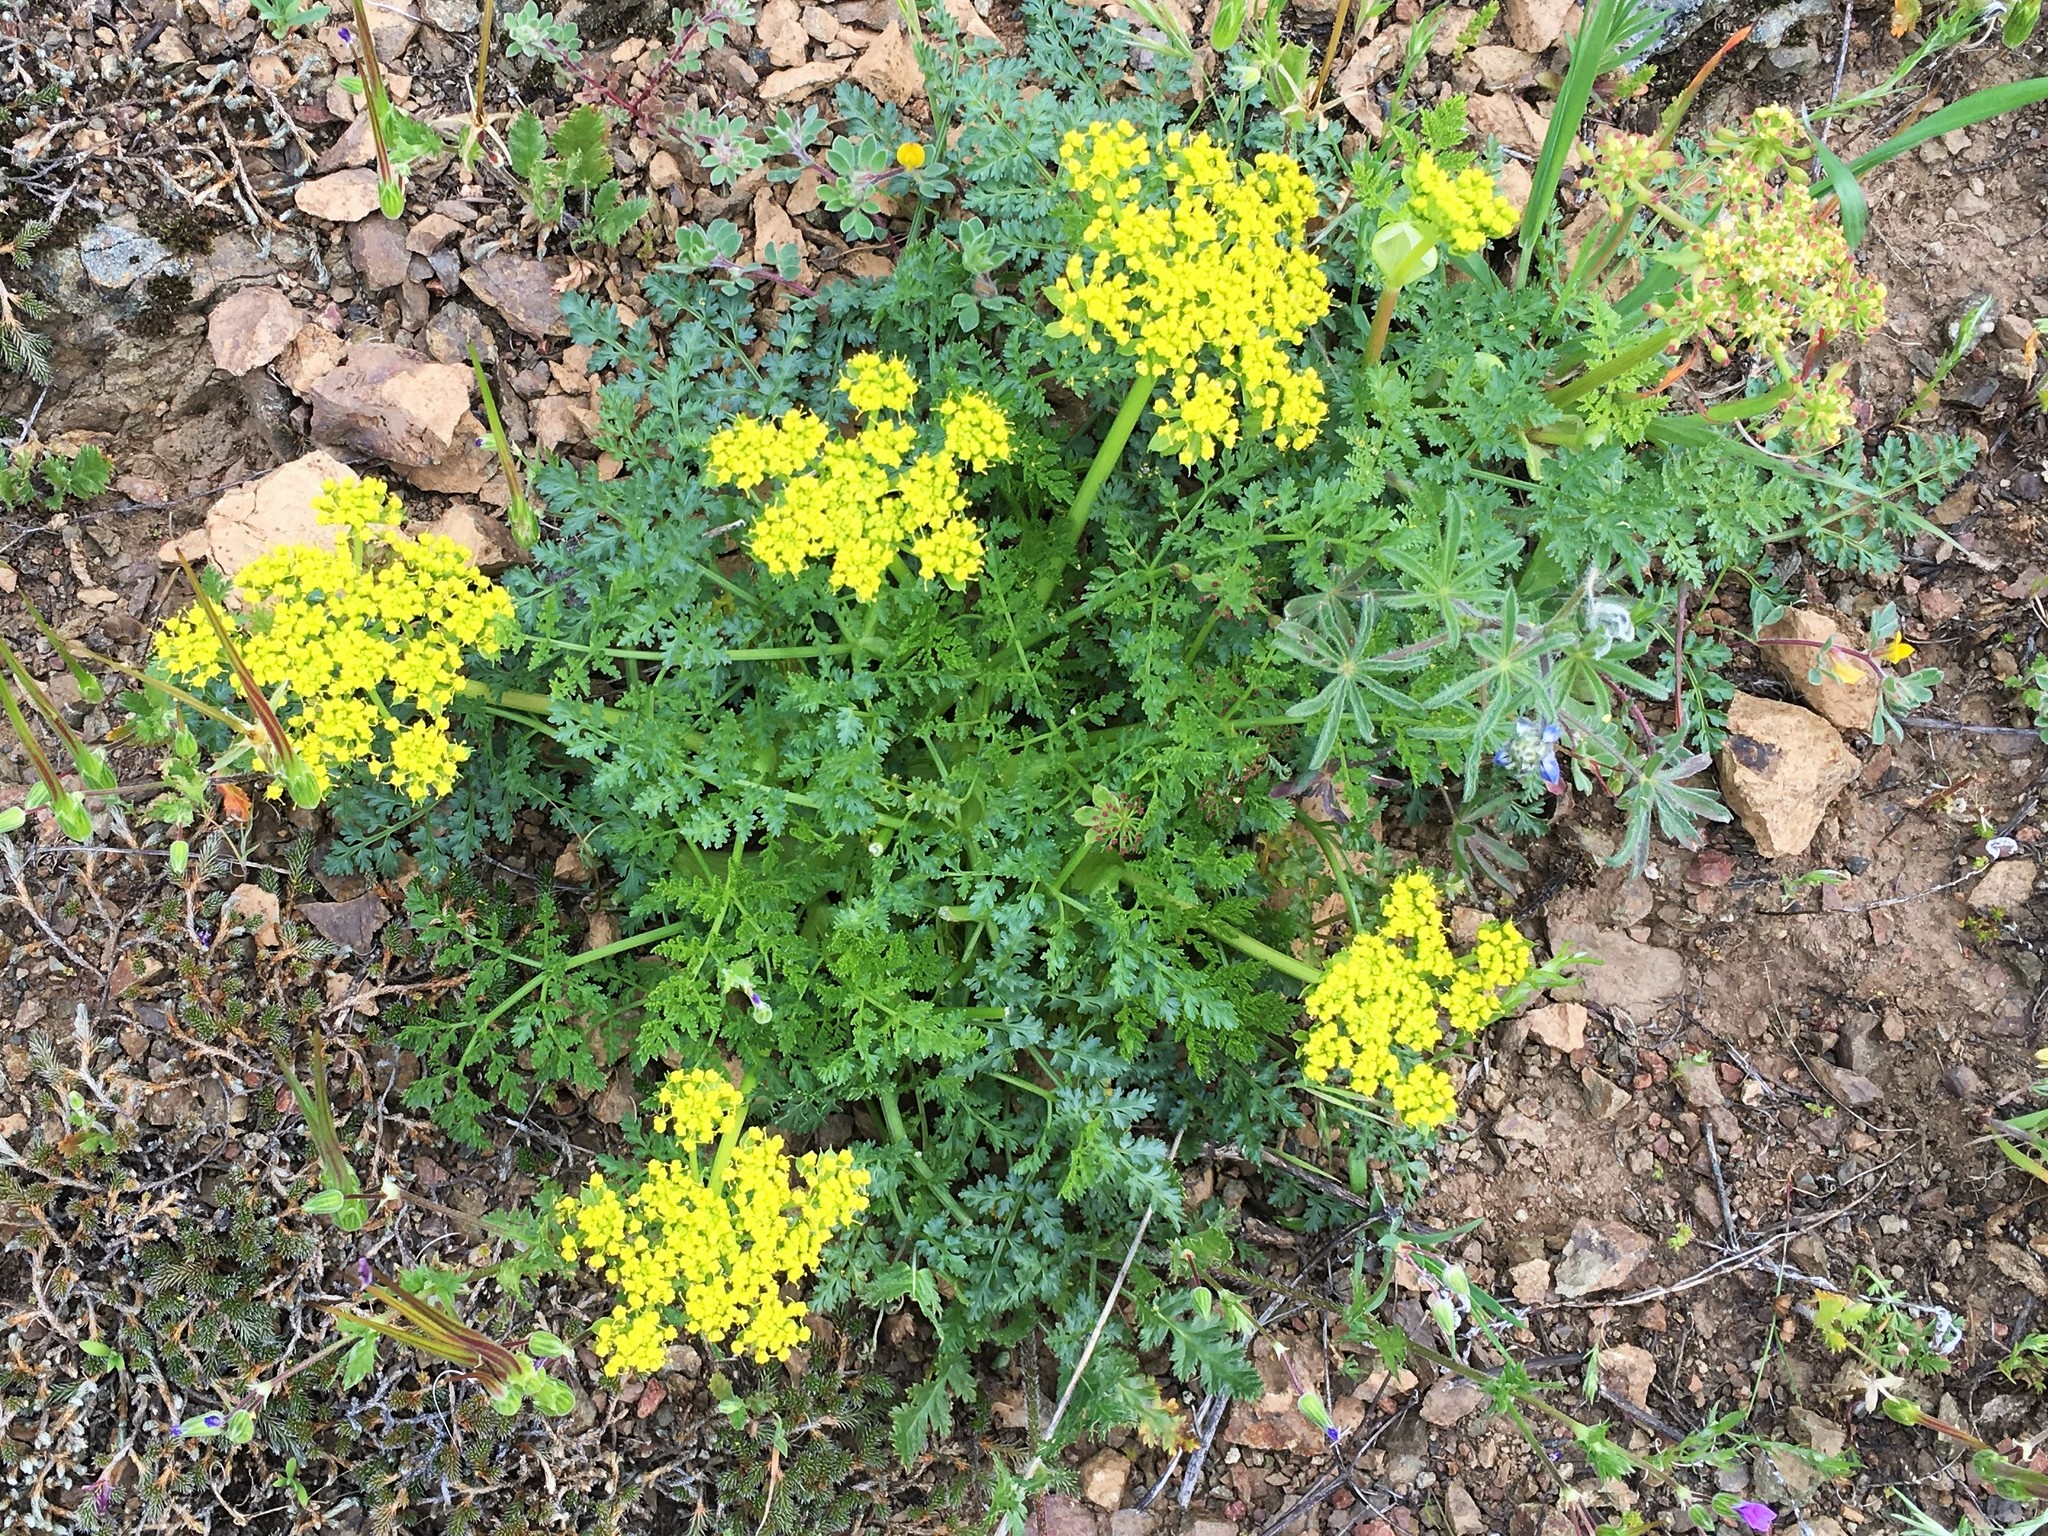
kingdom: Plantae
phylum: Tracheophyta
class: Magnoliopsida
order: Apiales
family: Apiaceae
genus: Pteryxia
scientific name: Pteryxia terebinthina
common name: Turpentine wavewing
